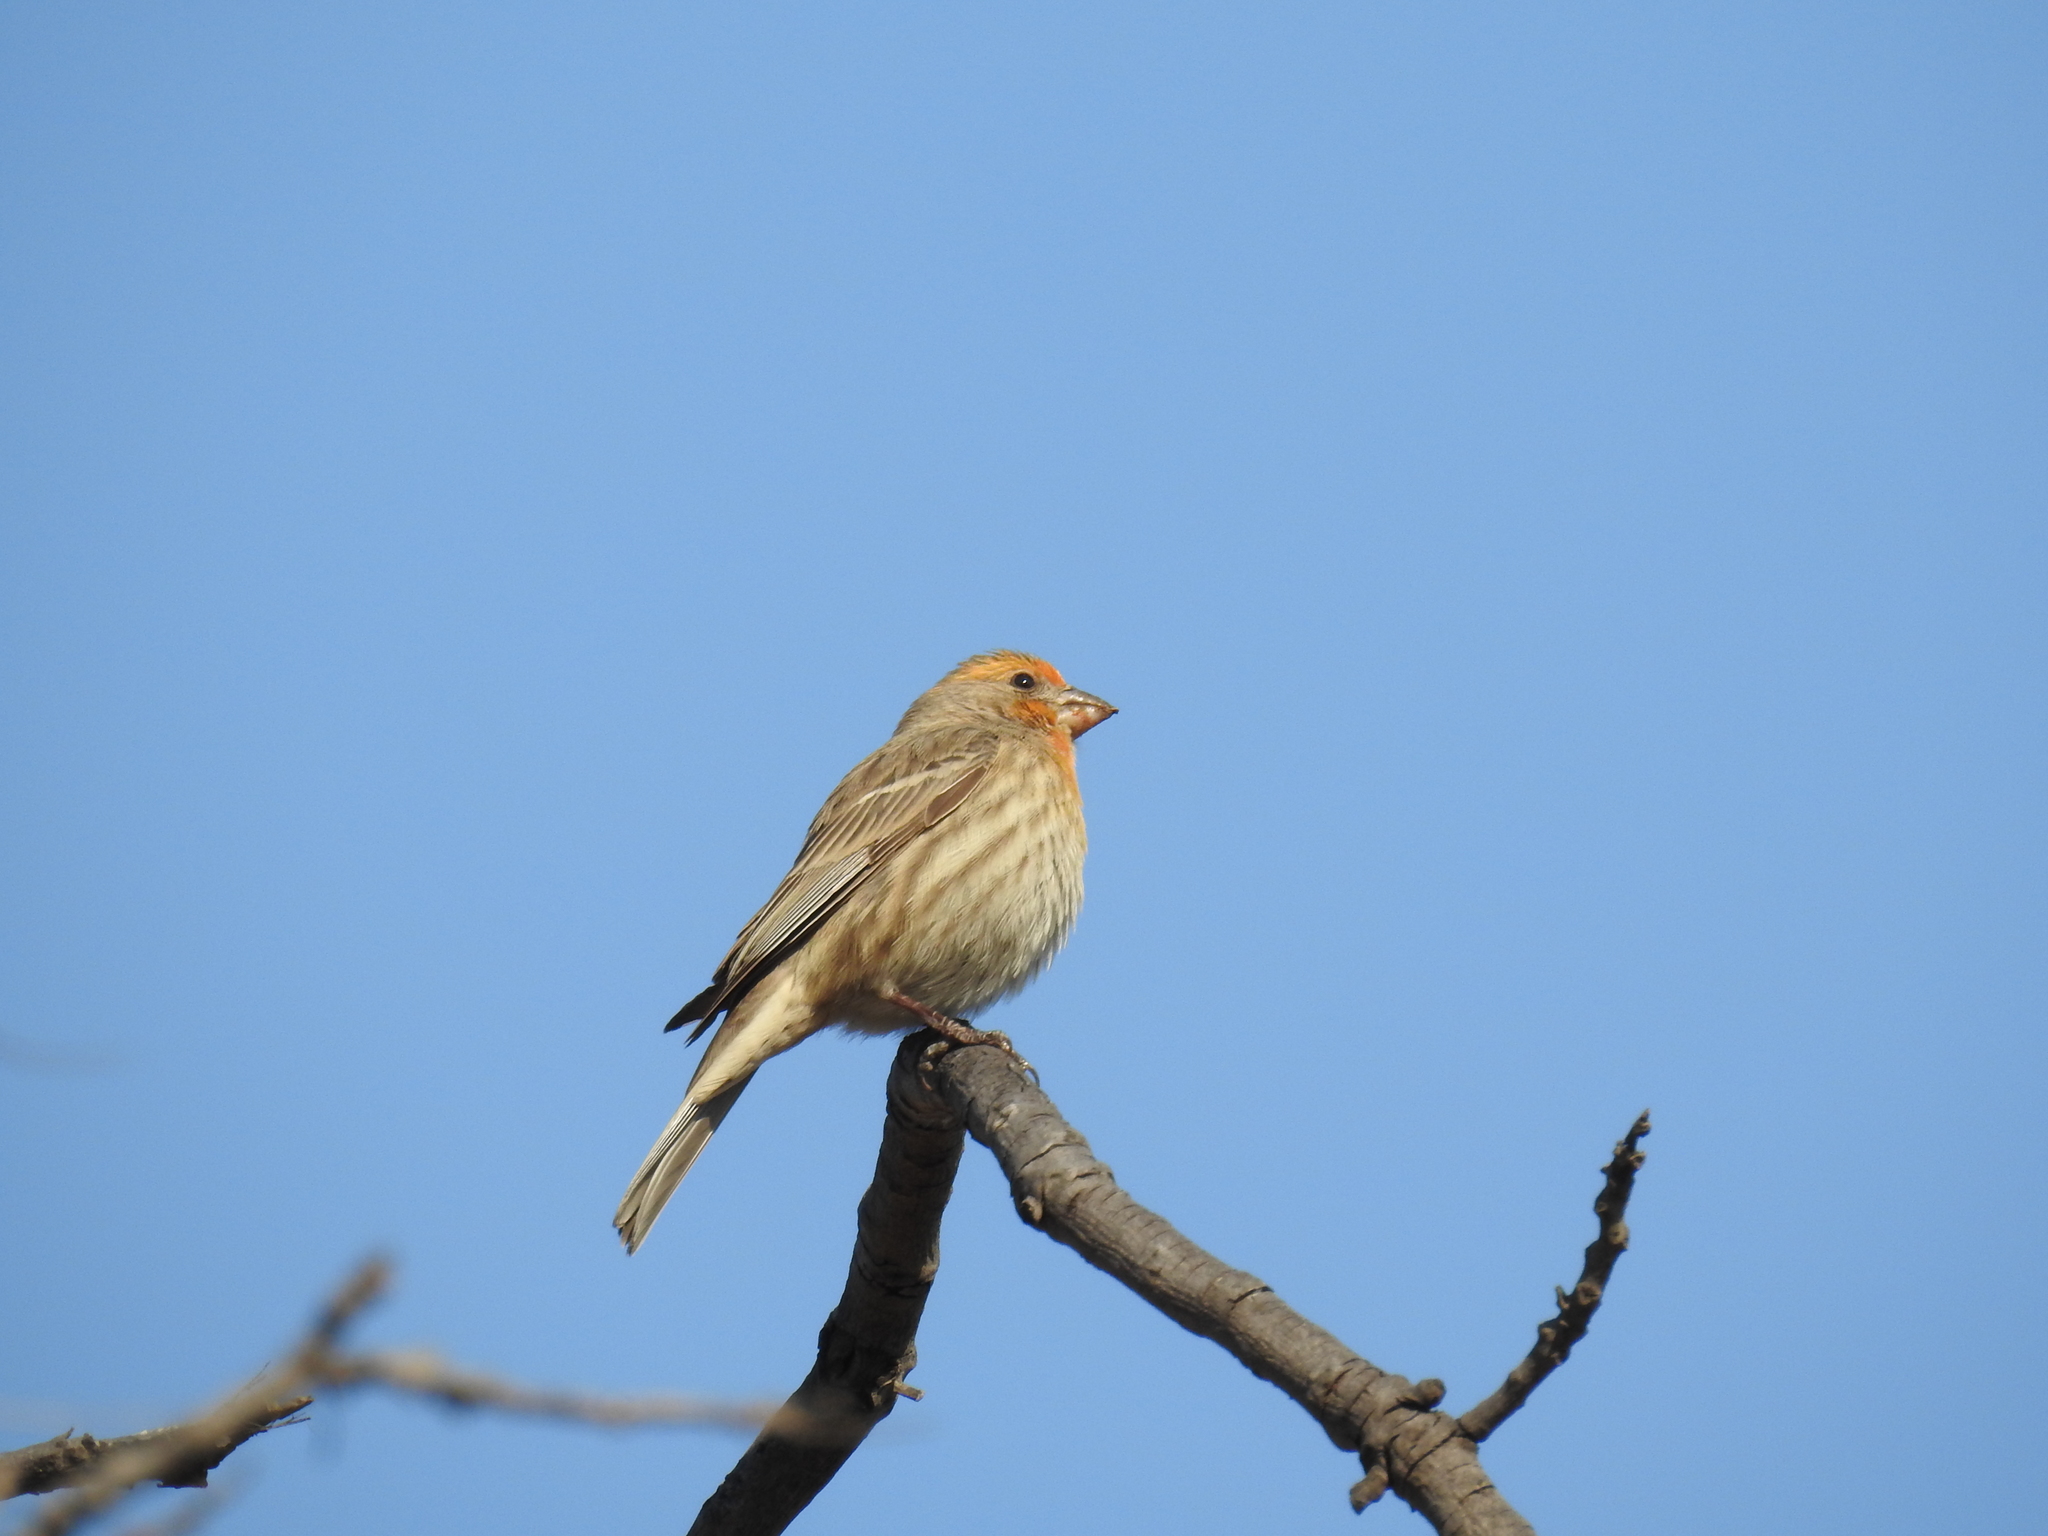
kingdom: Animalia
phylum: Chordata
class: Aves
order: Passeriformes
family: Fringillidae
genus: Haemorhous
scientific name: Haemorhous mexicanus
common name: House finch
